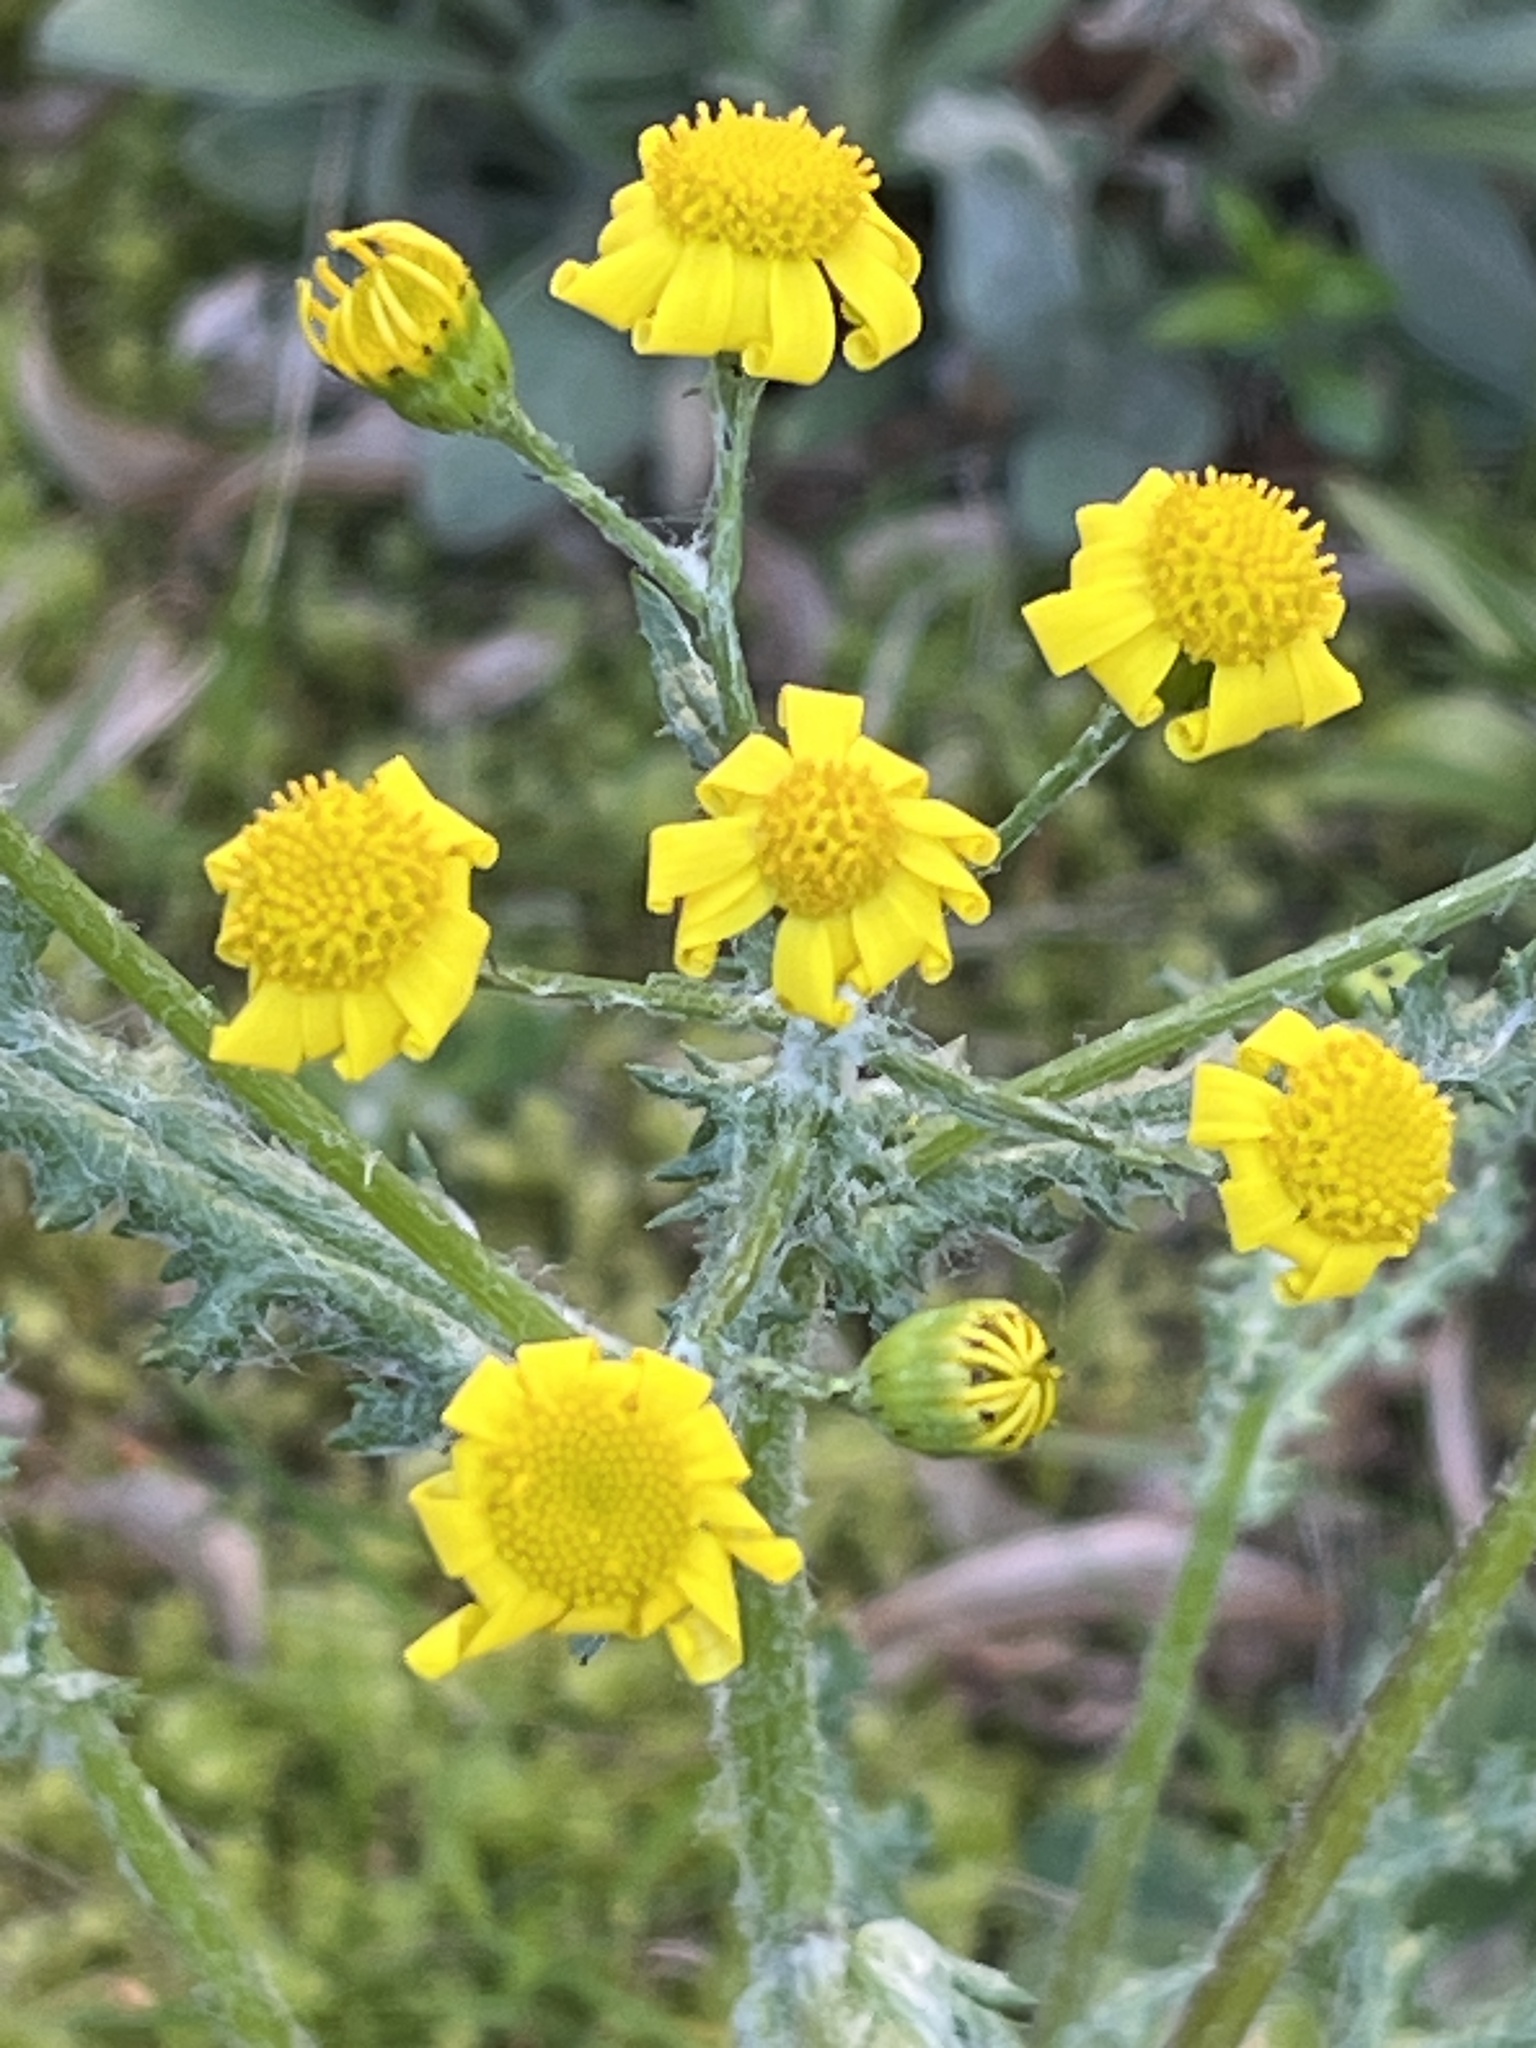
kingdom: Plantae
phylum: Tracheophyta
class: Magnoliopsida
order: Asterales
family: Asteraceae
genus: Senecio
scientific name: Senecio vernalis
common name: Eastern groundsel
